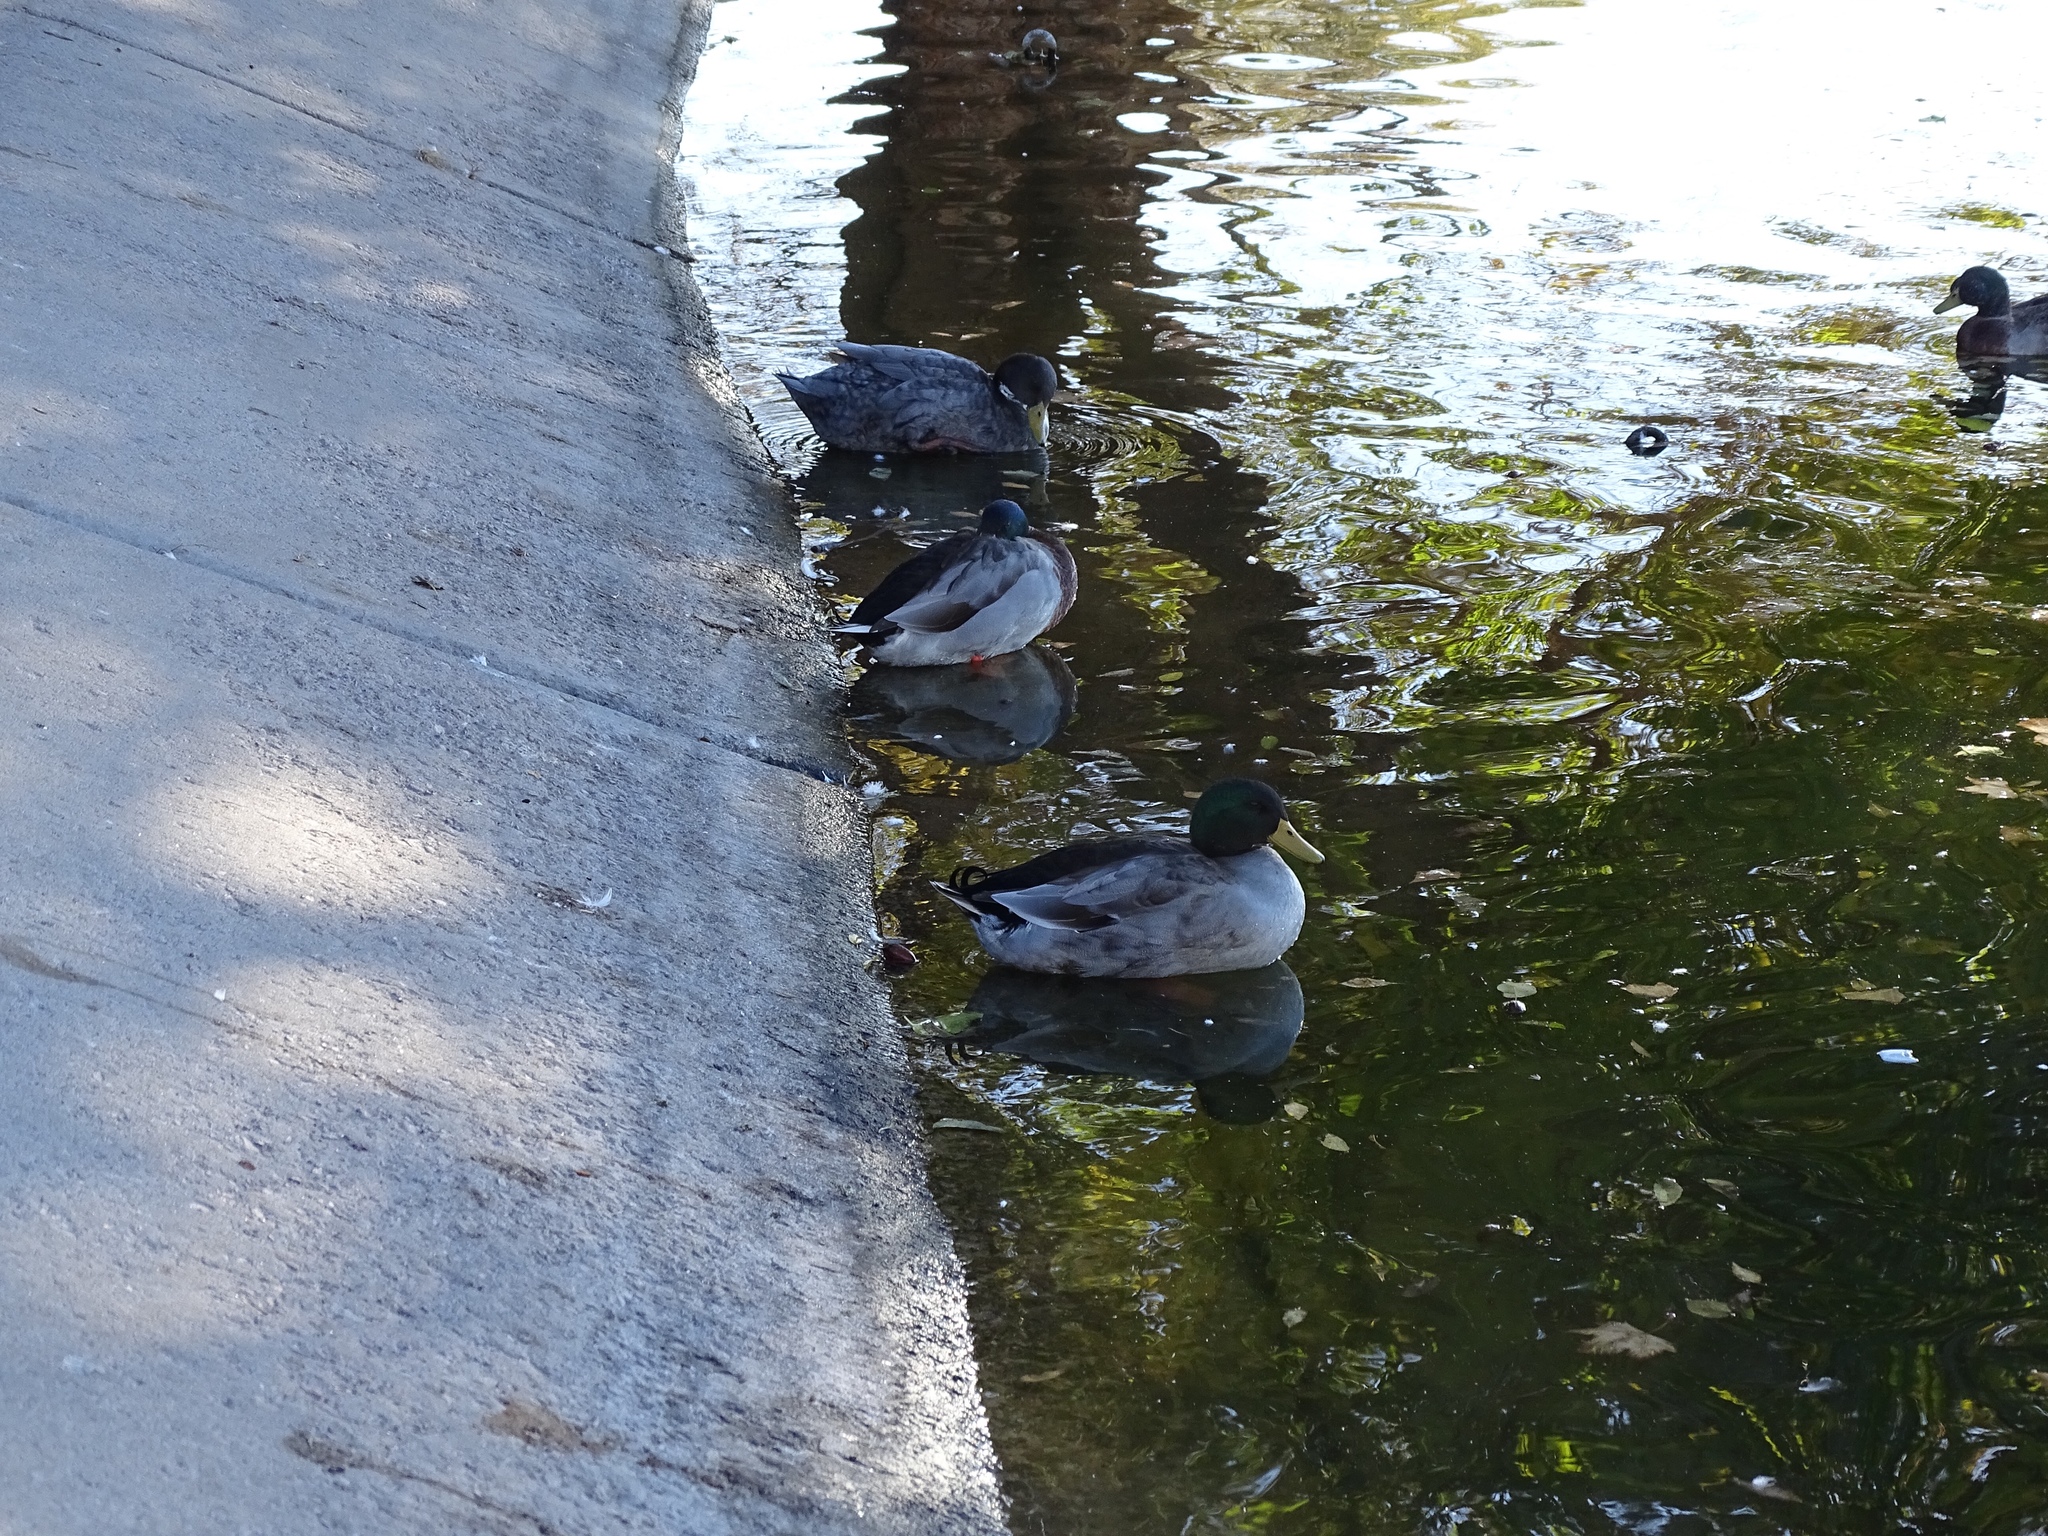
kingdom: Animalia
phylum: Chordata
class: Aves
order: Anseriformes
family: Anatidae
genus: Anas
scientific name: Anas platyrhynchos
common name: Mallard
